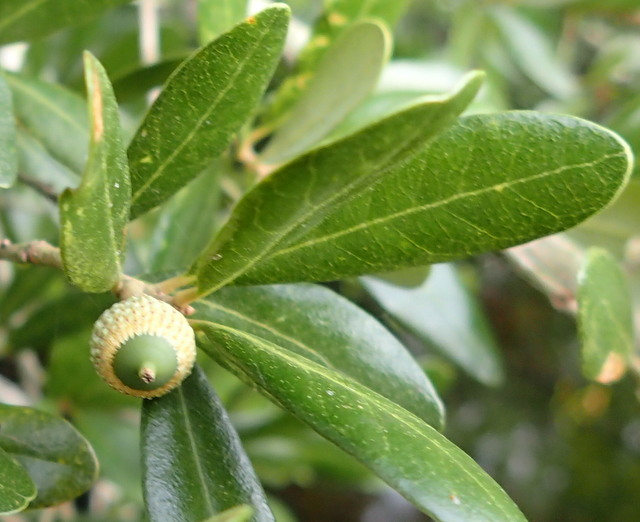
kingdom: Plantae
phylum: Tracheophyta
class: Magnoliopsida
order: Fagales
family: Fagaceae
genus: Quercus
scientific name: Quercus virginiana
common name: Southern live oak
